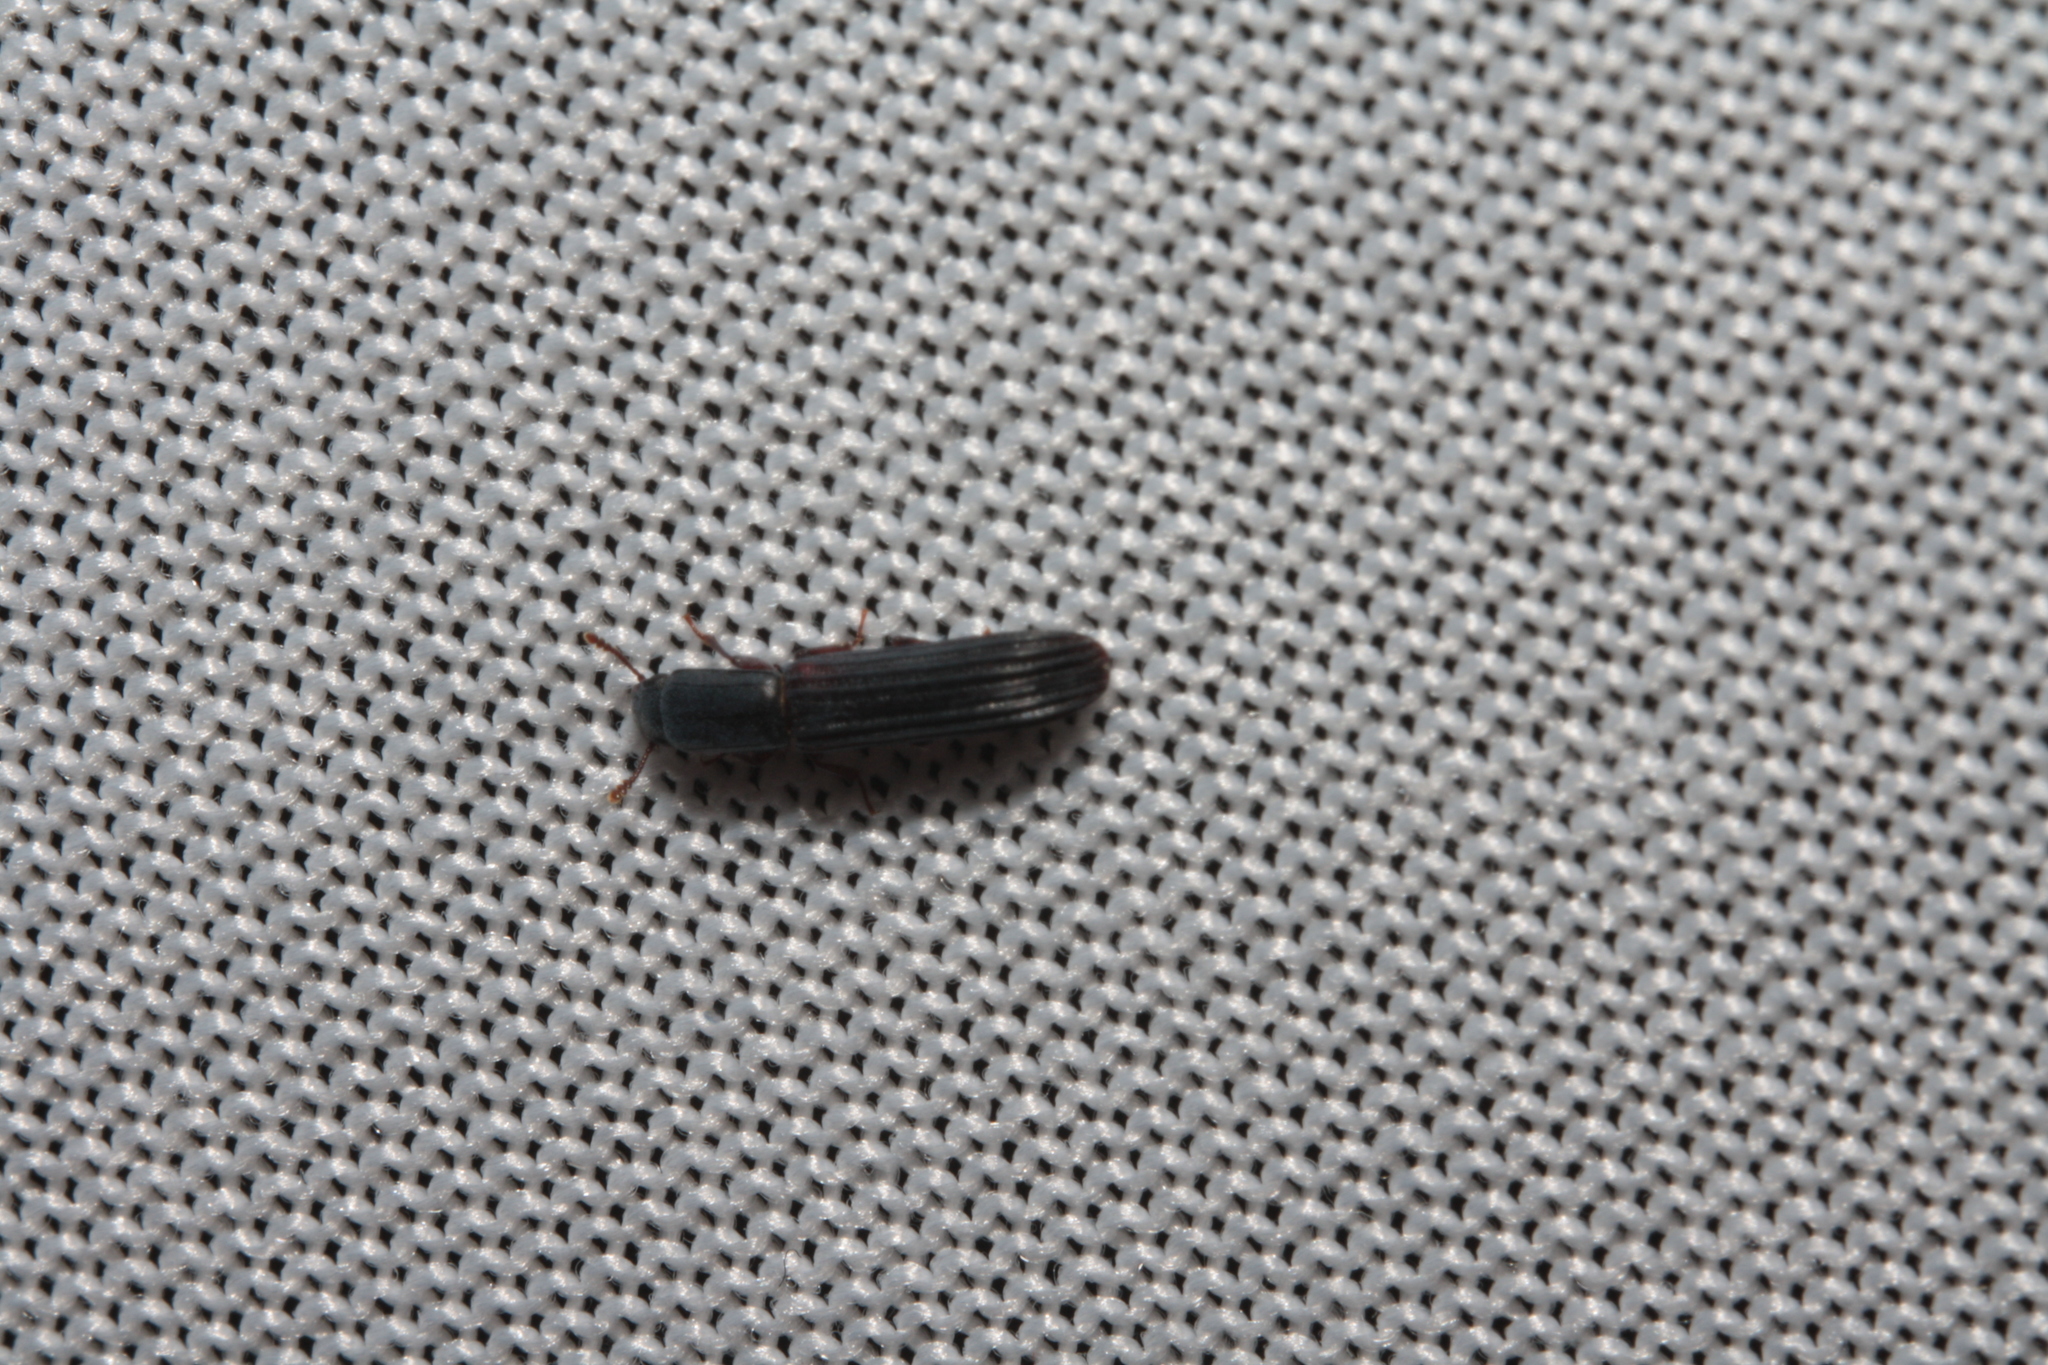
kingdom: Animalia
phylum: Arthropoda
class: Insecta
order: Coleoptera
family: Zopheridae
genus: Colydium
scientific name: Colydium elongatum
